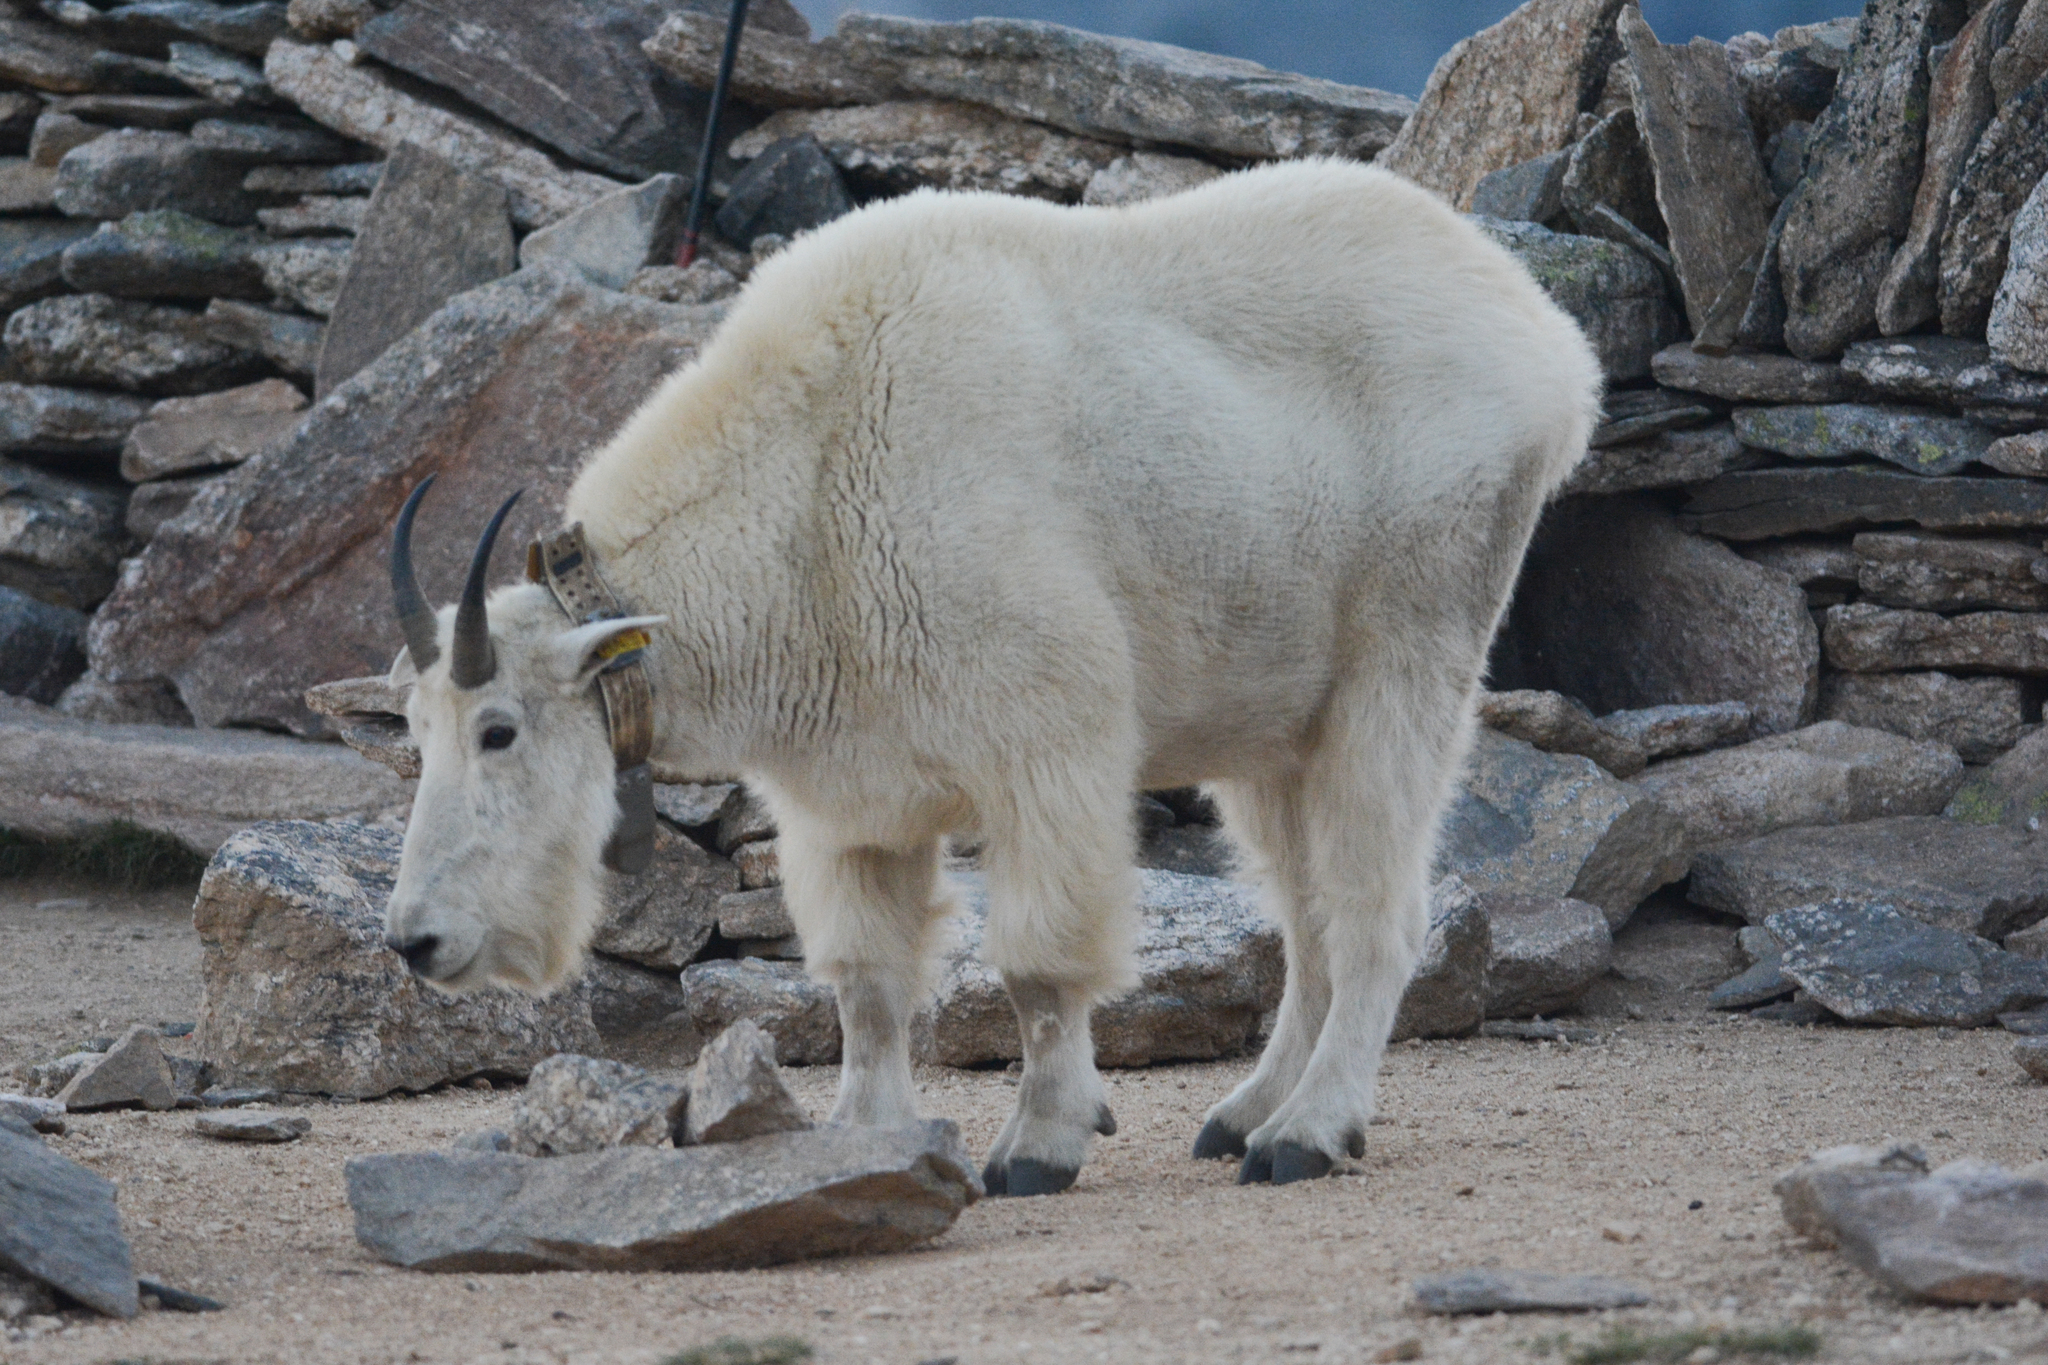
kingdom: Animalia
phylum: Chordata
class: Mammalia
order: Artiodactyla
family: Bovidae
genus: Oreamnos
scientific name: Oreamnos americanus
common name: Mountain goat
